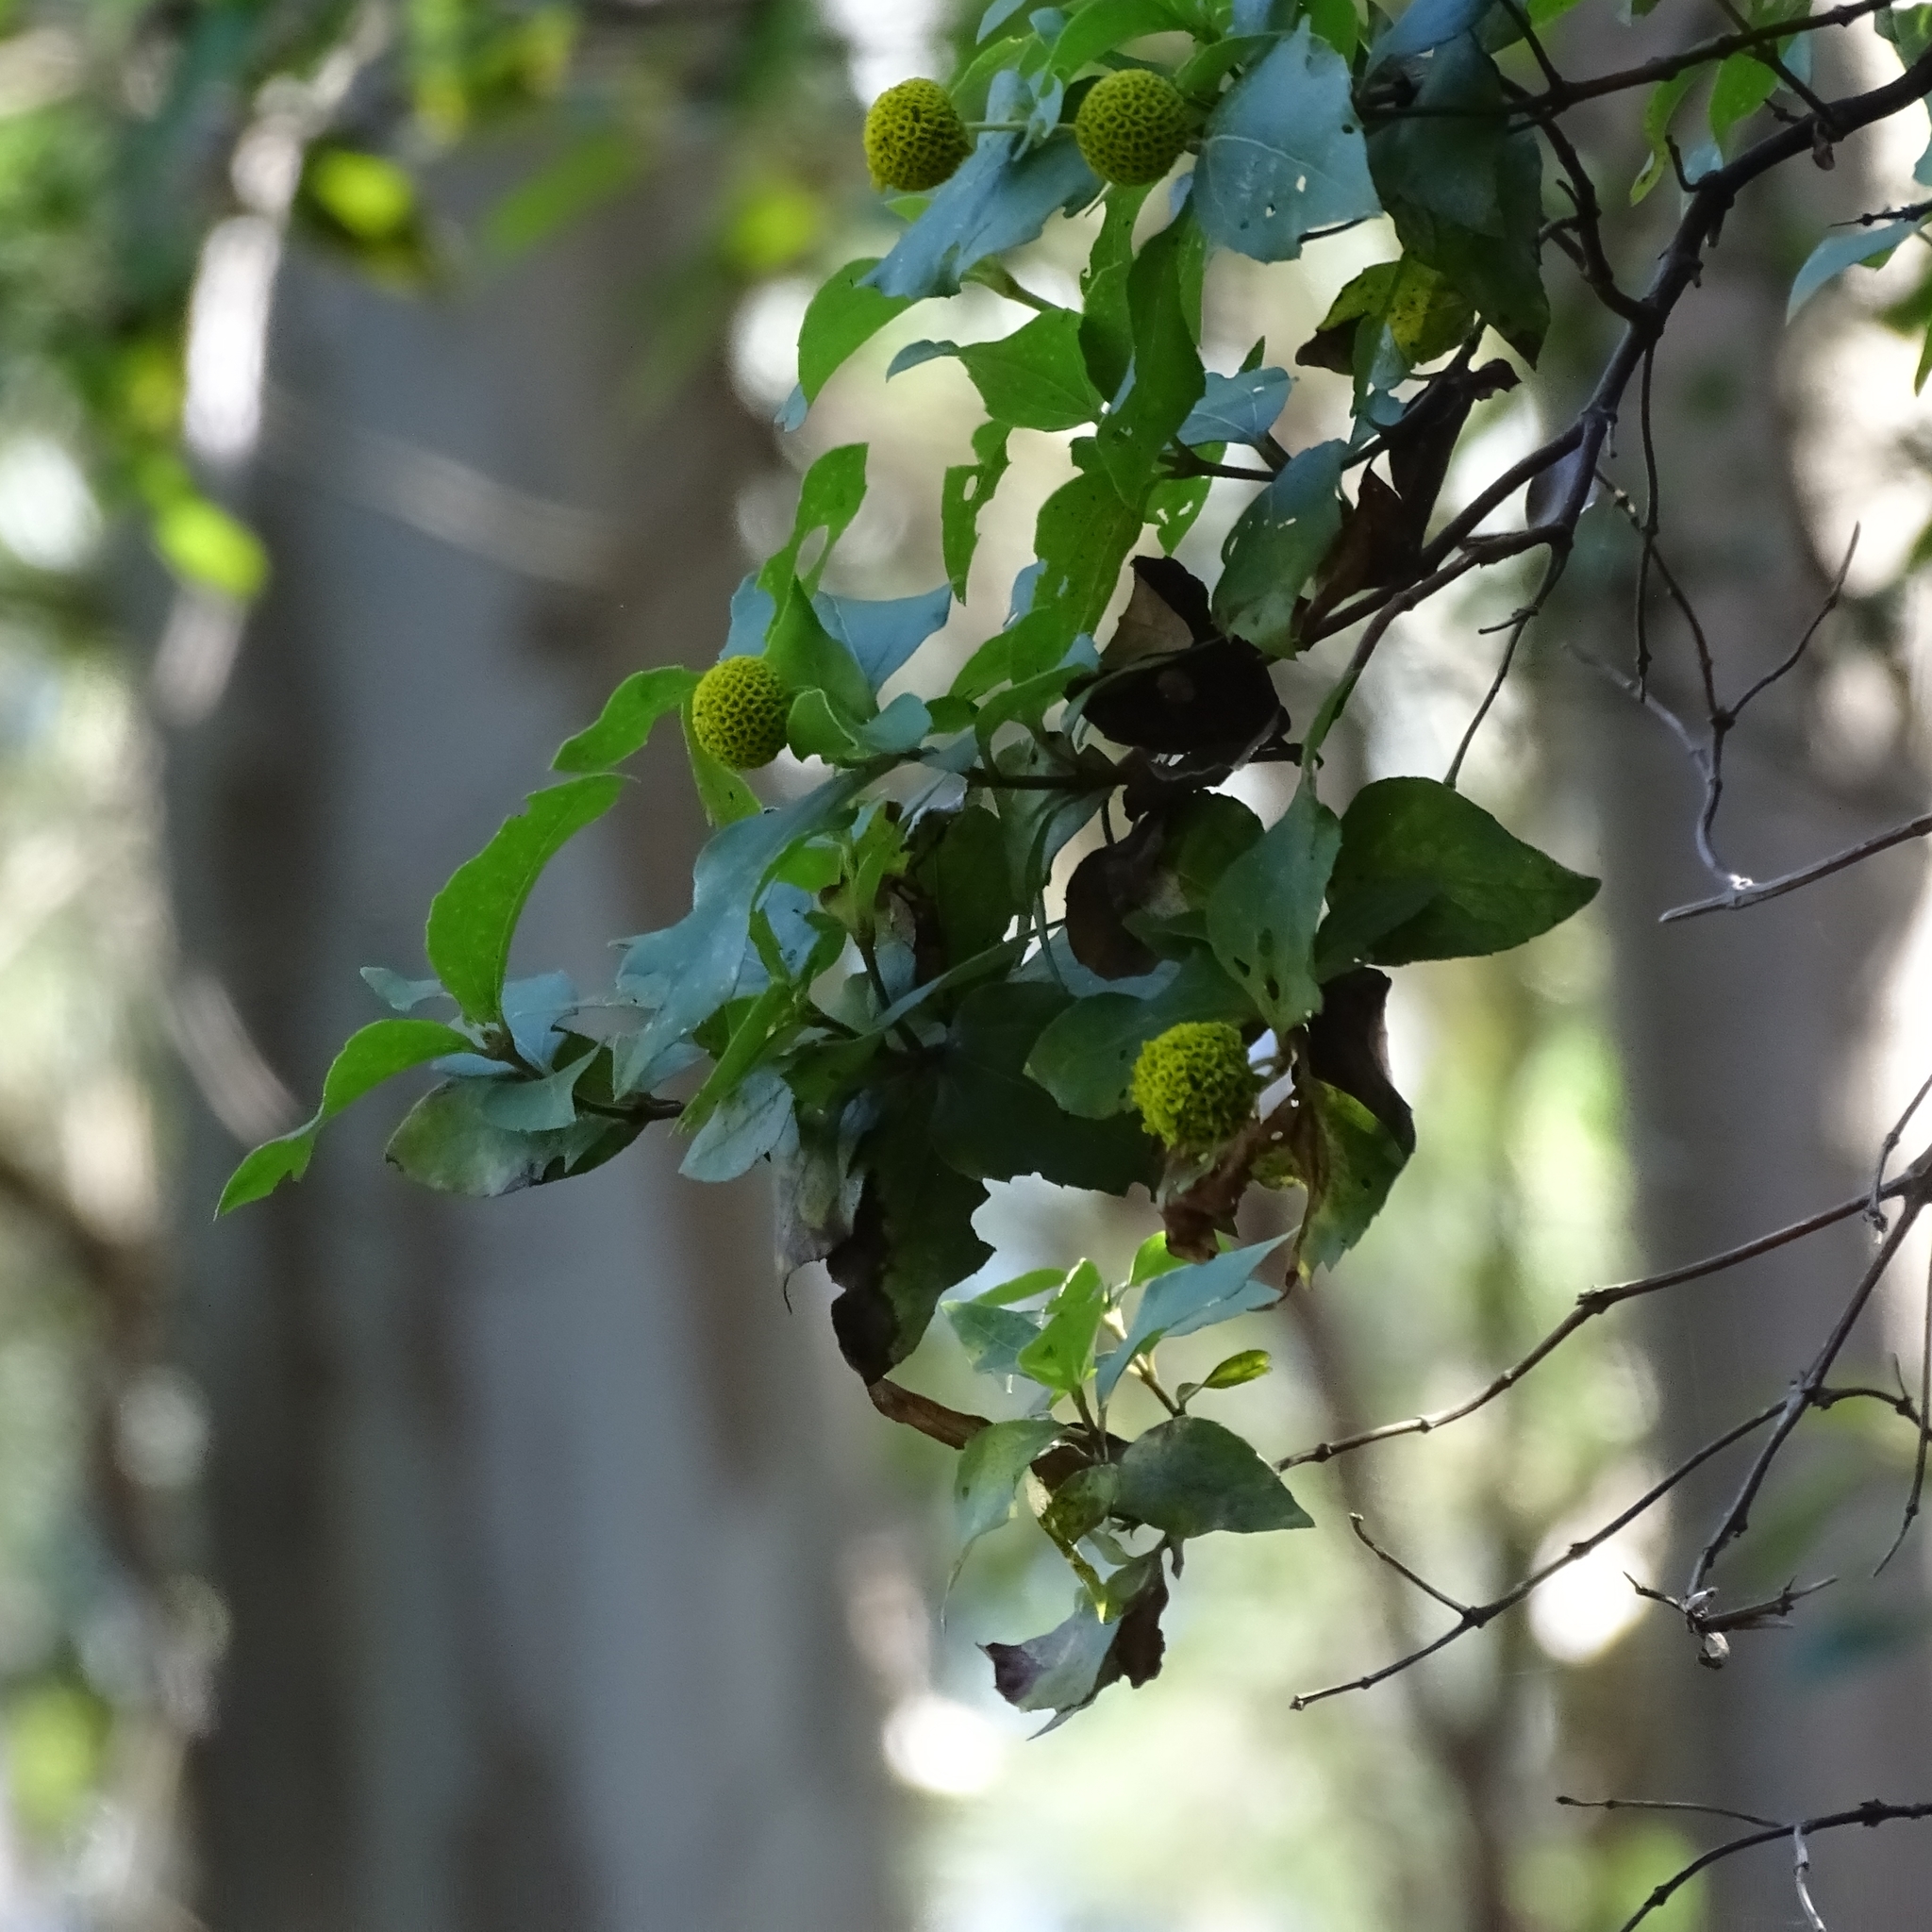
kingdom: Plantae
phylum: Tracheophyta
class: Magnoliopsida
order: Asterales
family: Asteraceae
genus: Podanthus
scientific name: Podanthus ovatifolius
